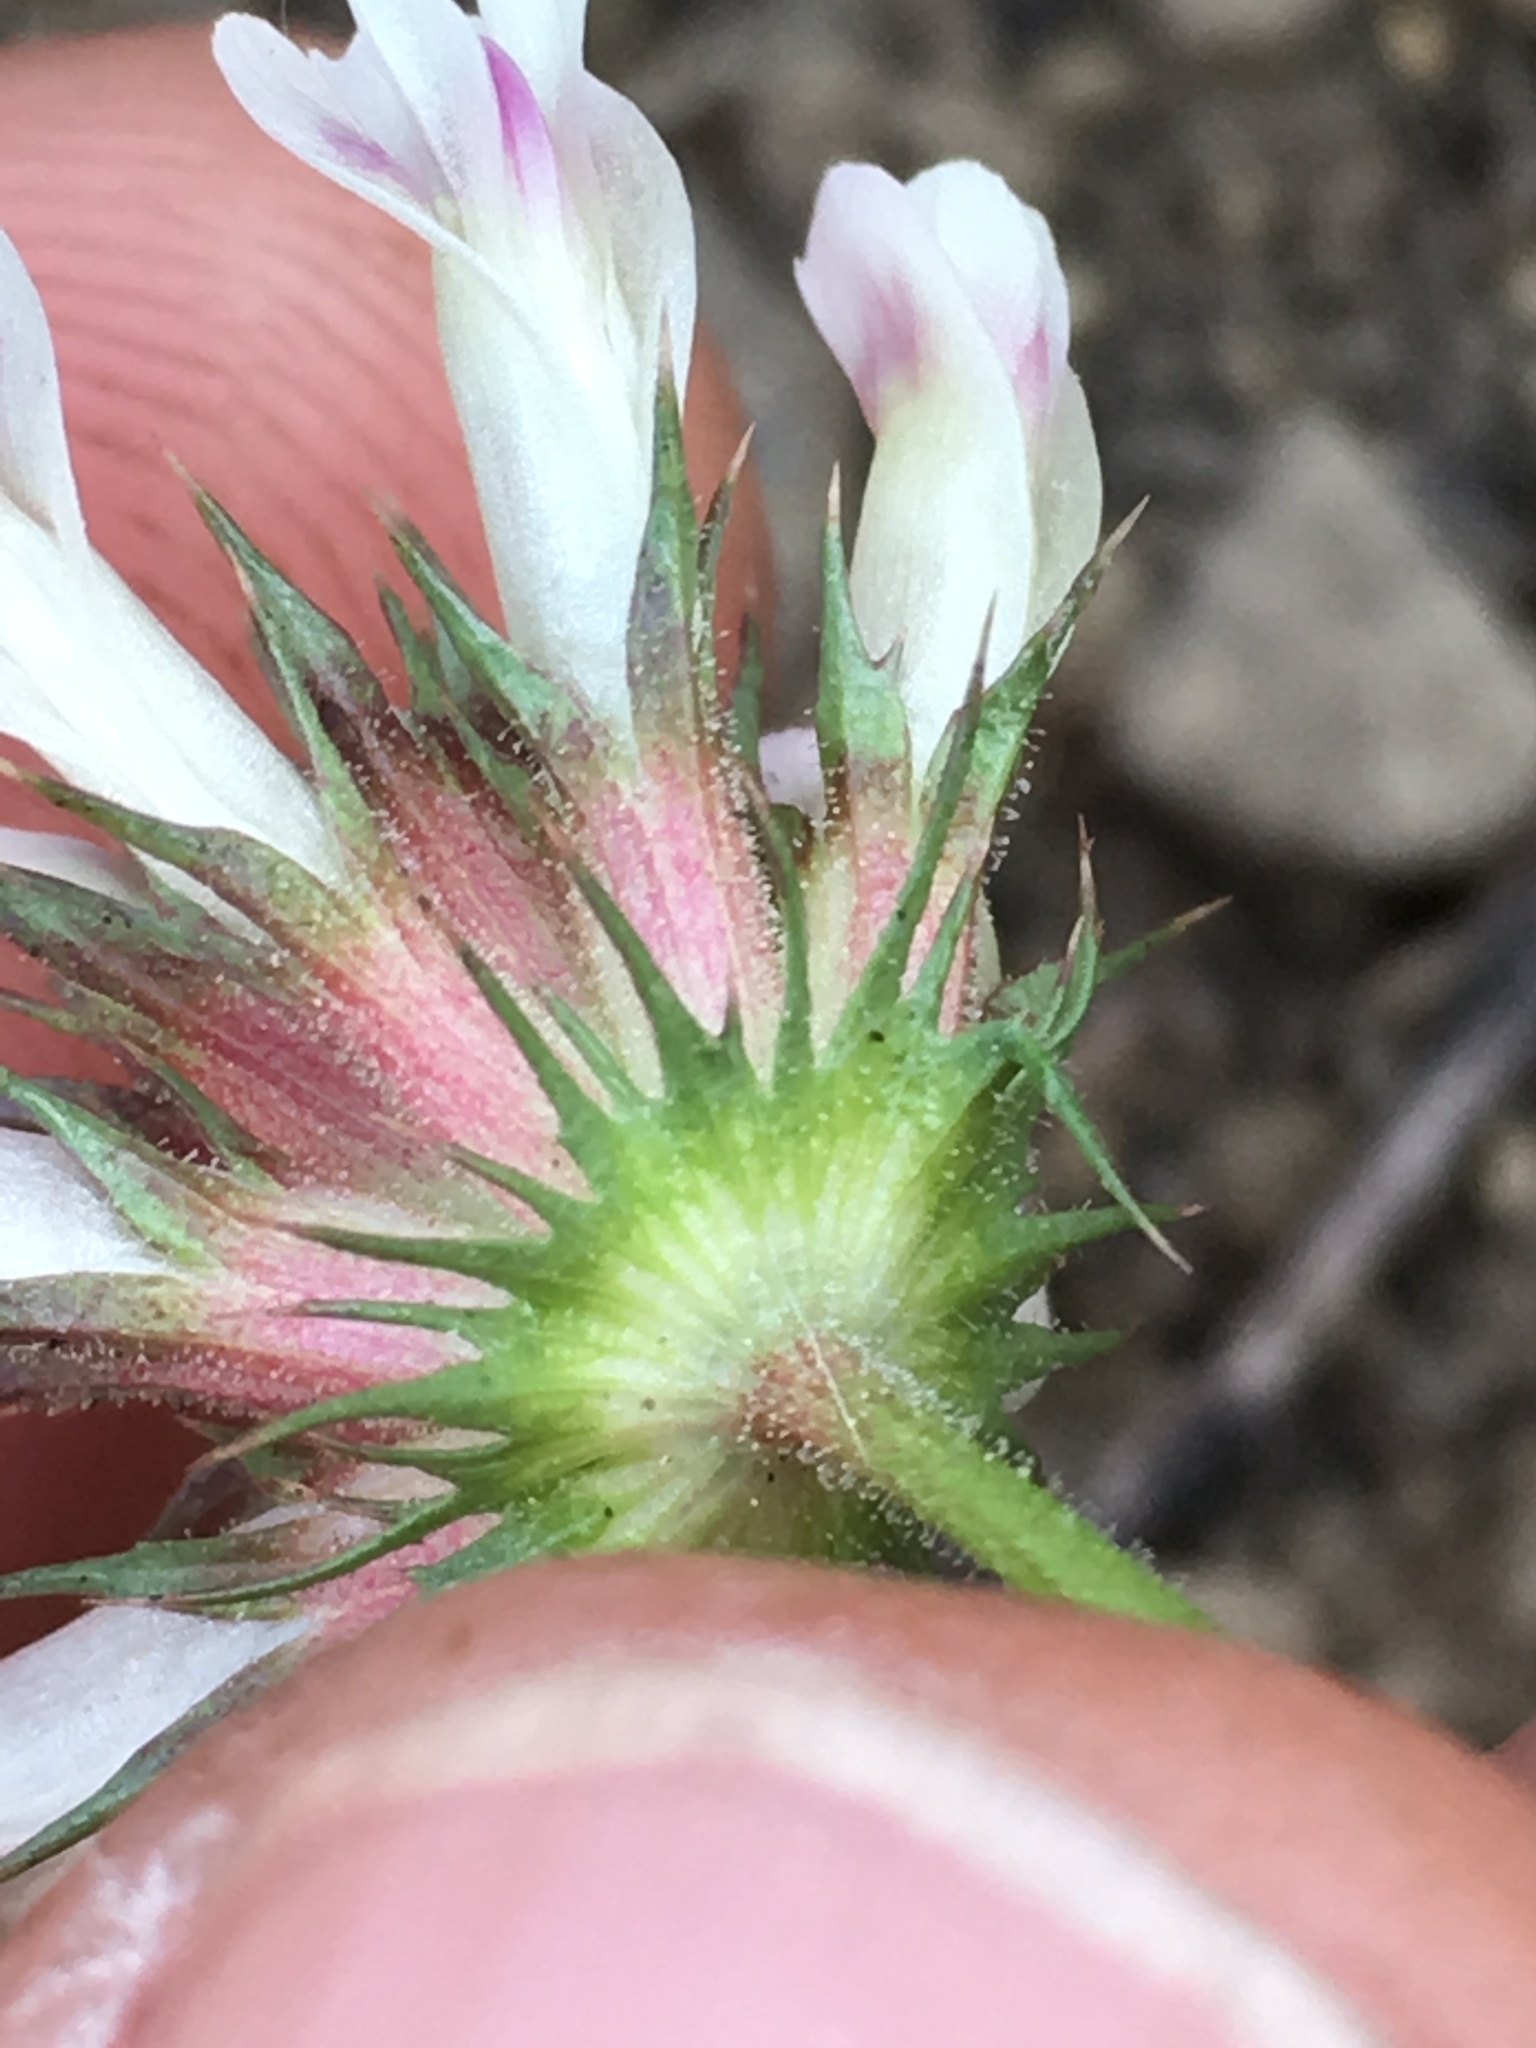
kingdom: Plantae
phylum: Tracheophyta
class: Magnoliopsida
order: Fabales
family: Fabaceae
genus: Trifolium
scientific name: Trifolium obtusiflorum
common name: Clammy clover
